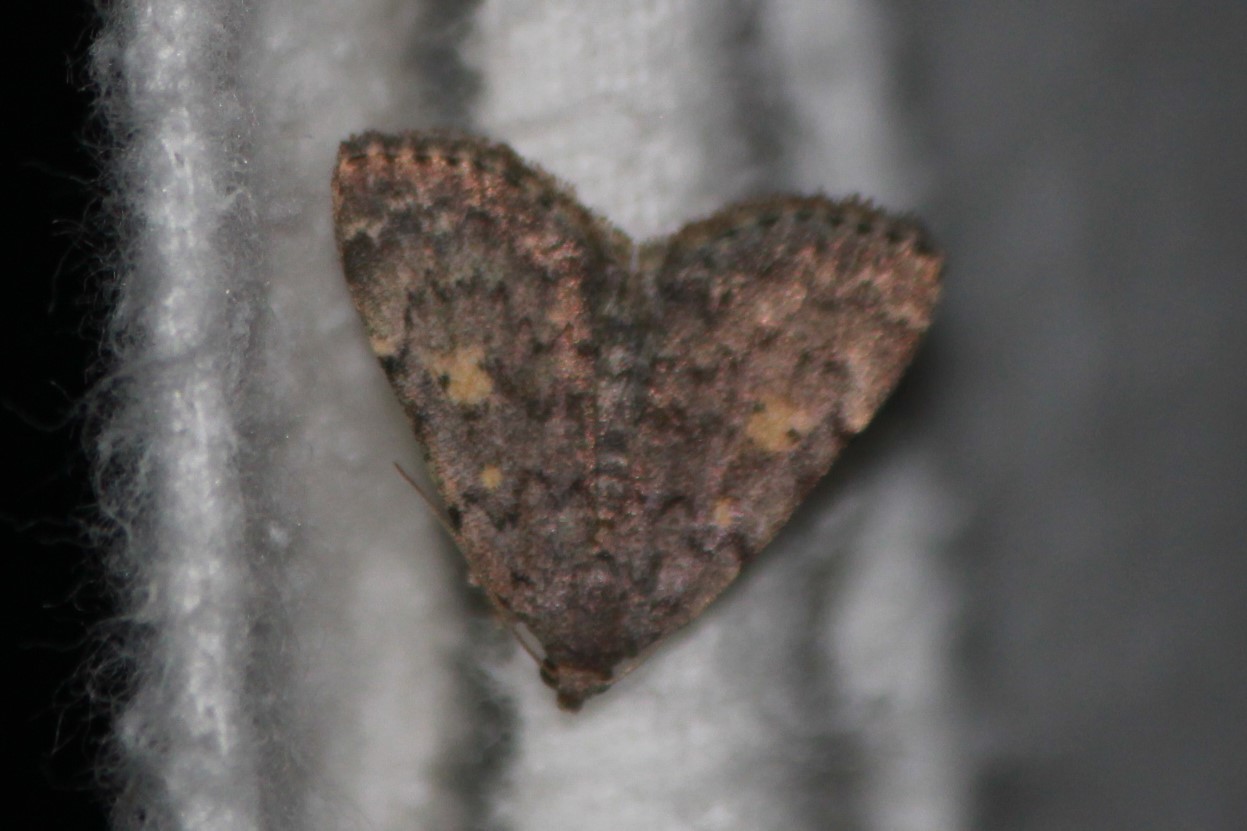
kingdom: Animalia
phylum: Arthropoda
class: Insecta
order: Lepidoptera
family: Erebidae
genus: Idia
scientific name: Idia aemula
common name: Common idia moth
